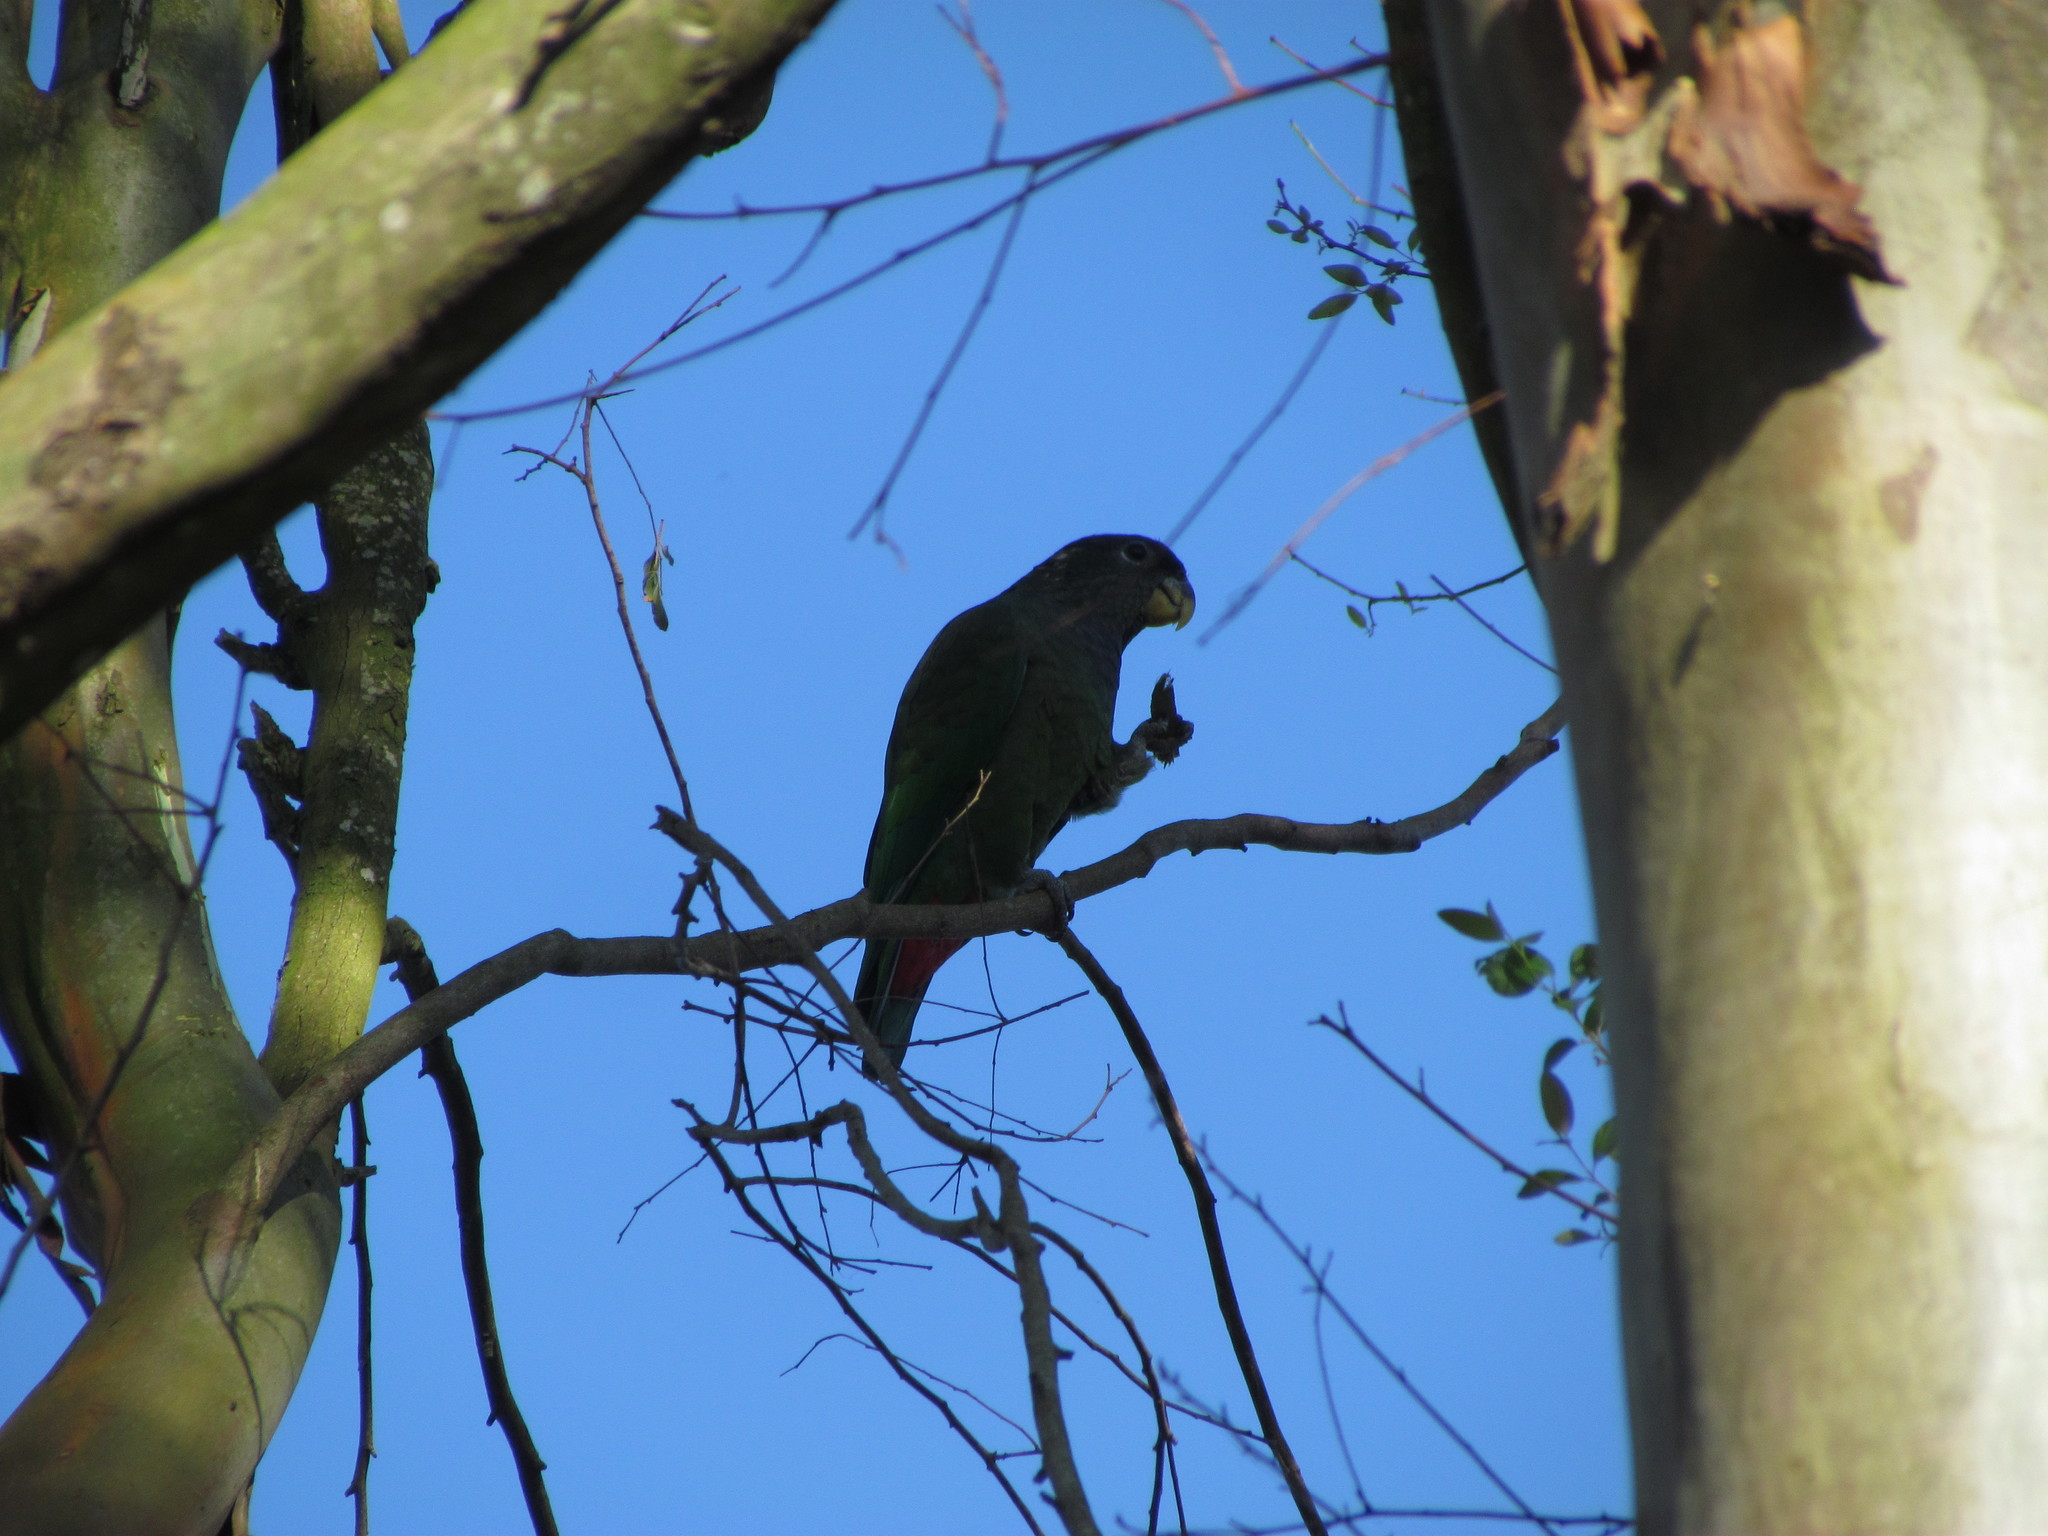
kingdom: Animalia
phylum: Chordata
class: Aves
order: Psittaciformes
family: Psittacidae
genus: Pionus
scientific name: Pionus maximiliani
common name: Scaly-headed parrot
